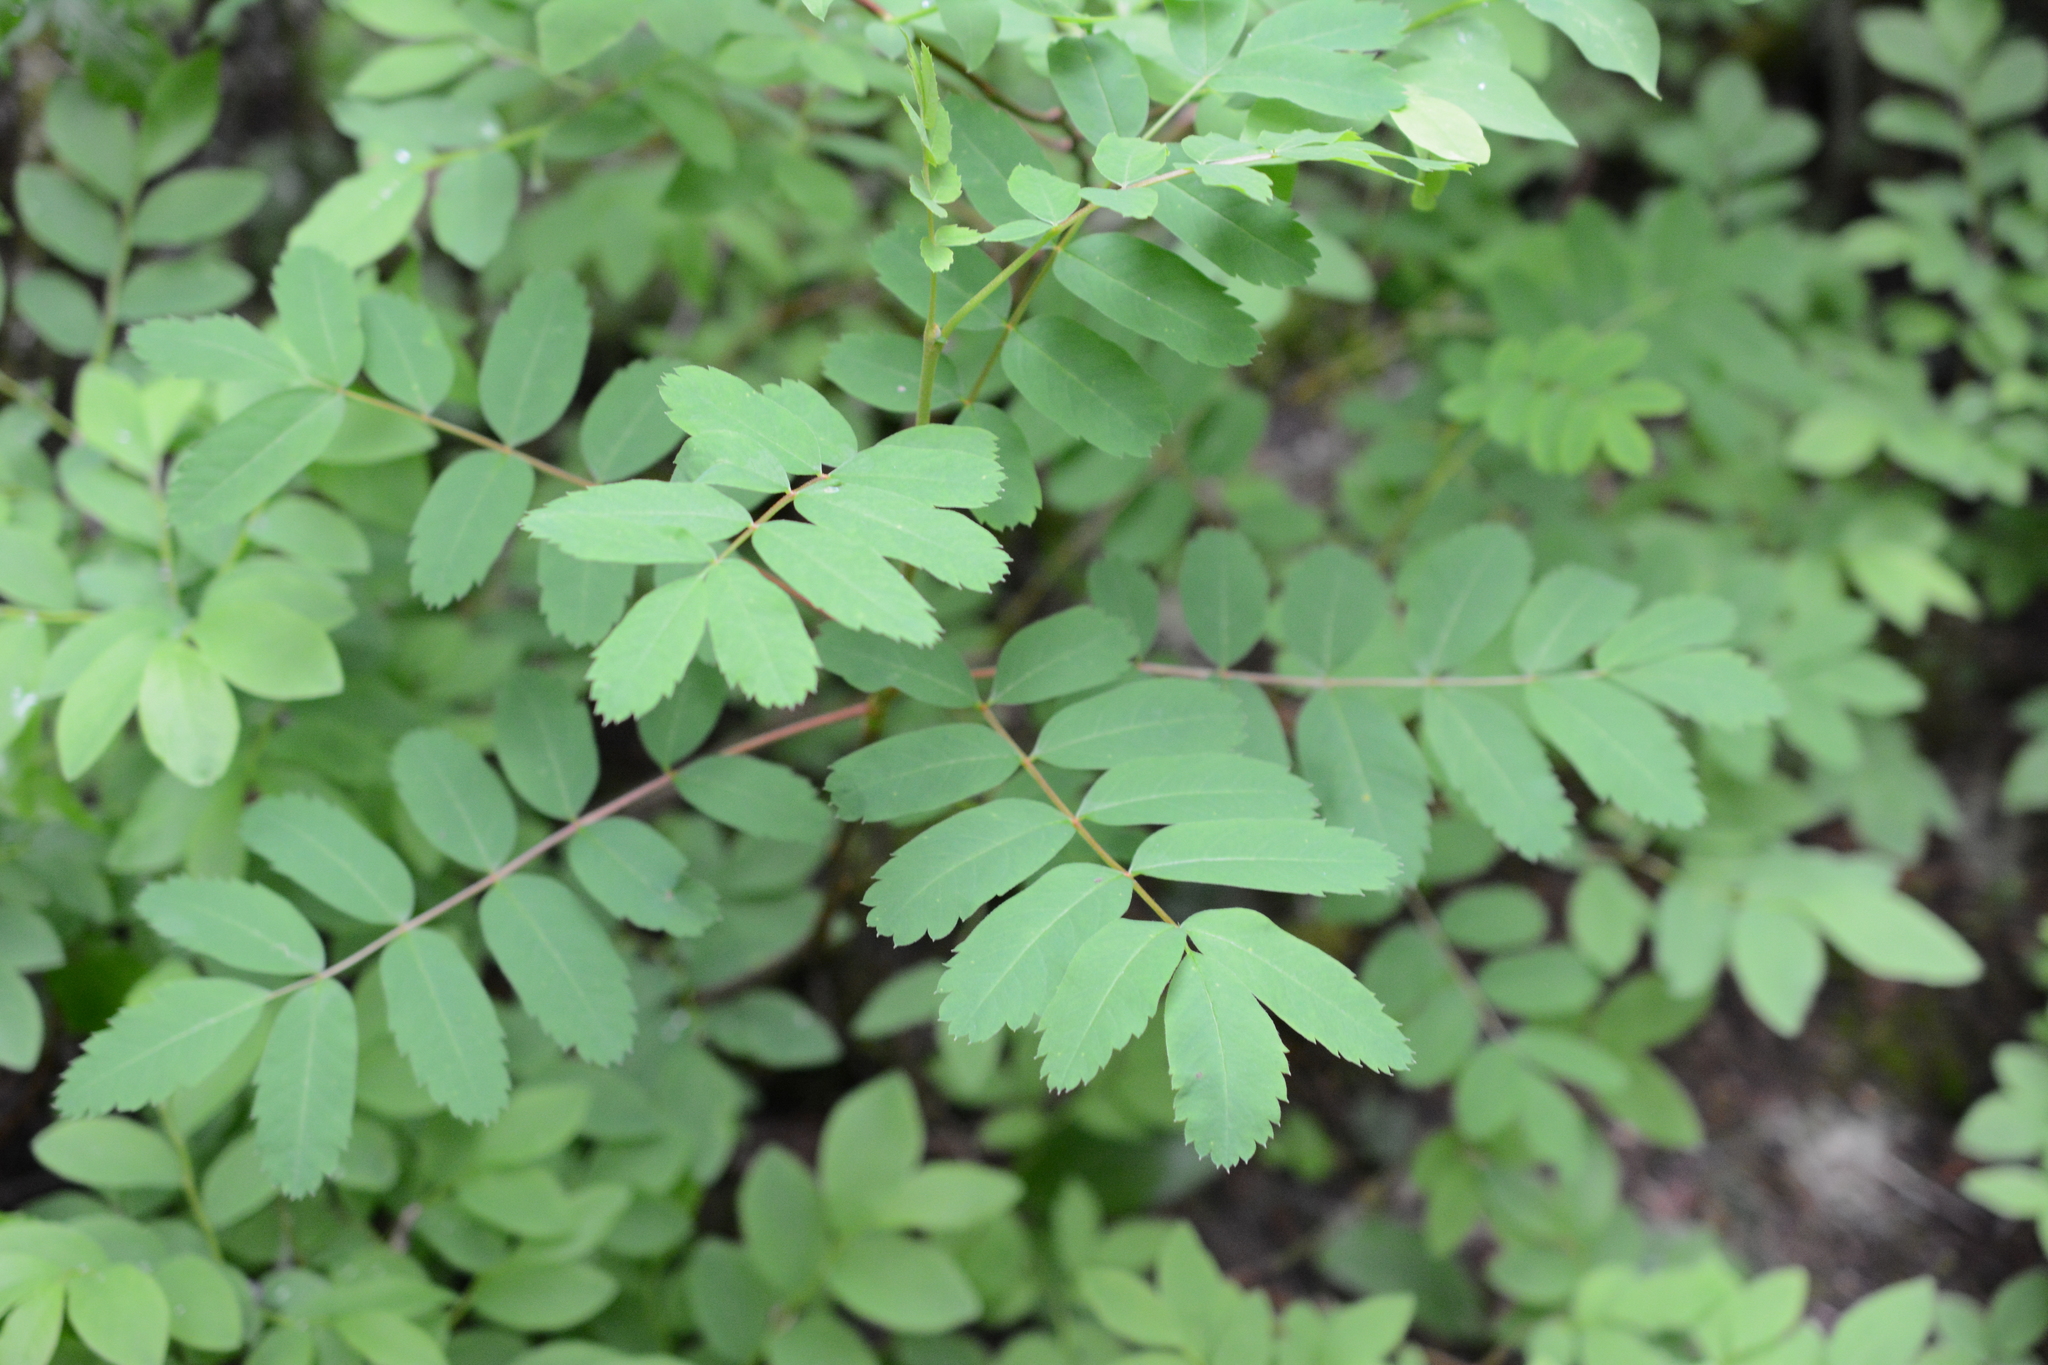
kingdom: Plantae
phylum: Tracheophyta
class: Magnoliopsida
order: Rosales
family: Rosaceae
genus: Sorbus
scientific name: Sorbus sitchensis
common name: Sitka mountain-ash
